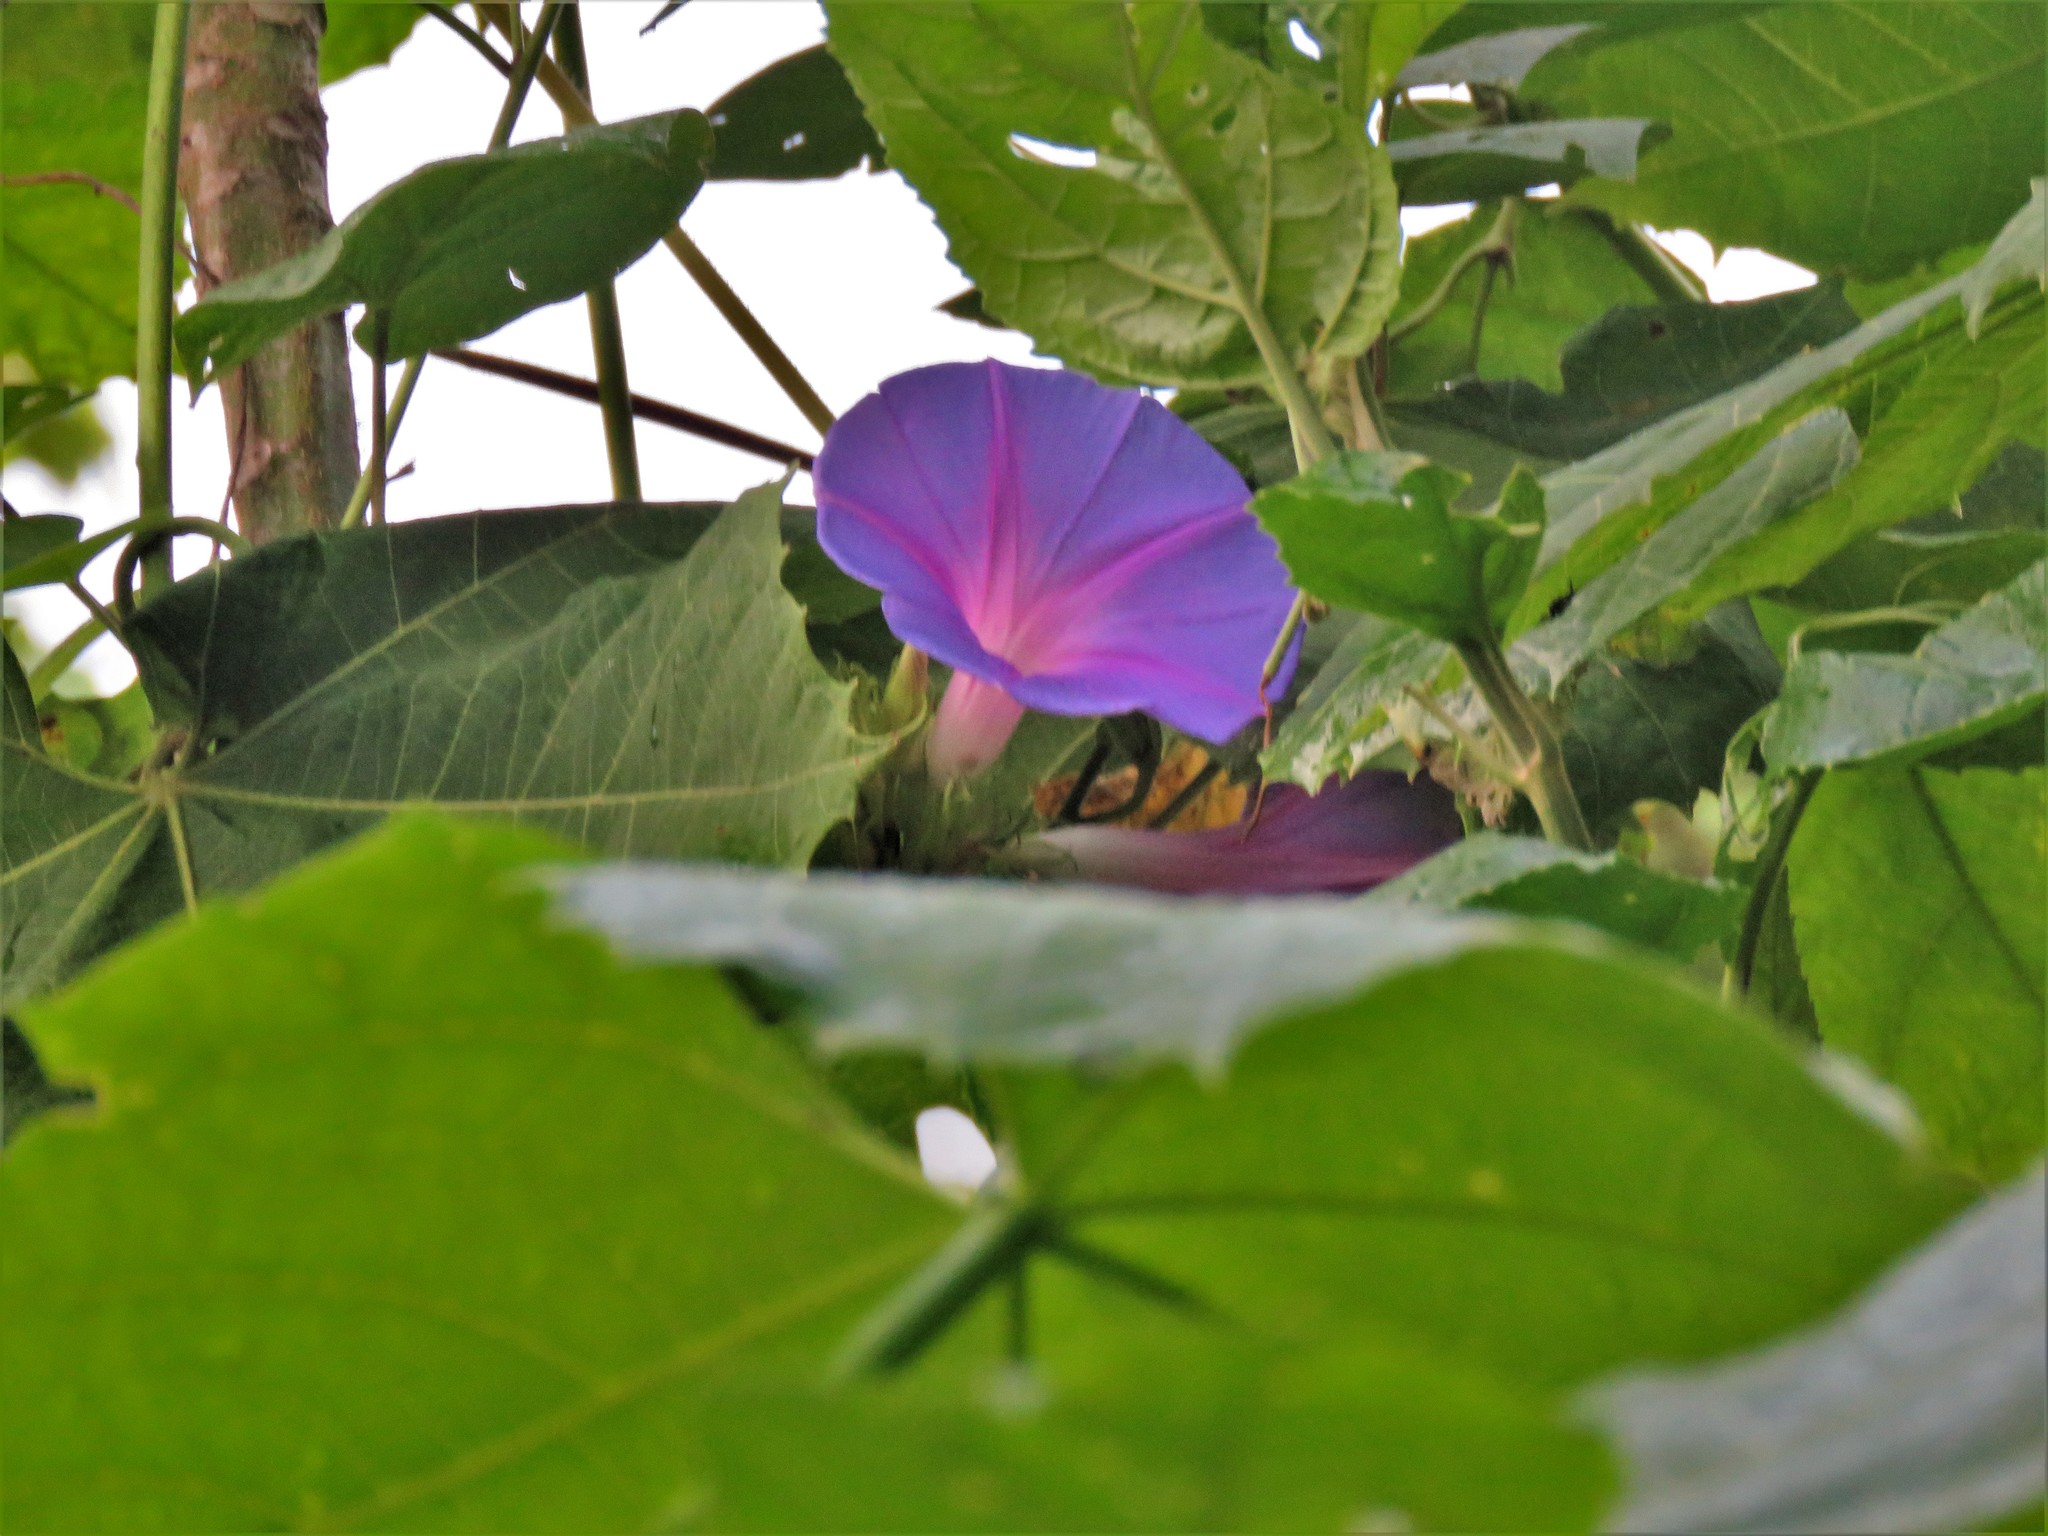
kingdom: Plantae
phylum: Tracheophyta
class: Magnoliopsida
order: Solanales
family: Convolvulaceae
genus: Ipomoea
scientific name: Ipomoea indica
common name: Blue dawnflower
